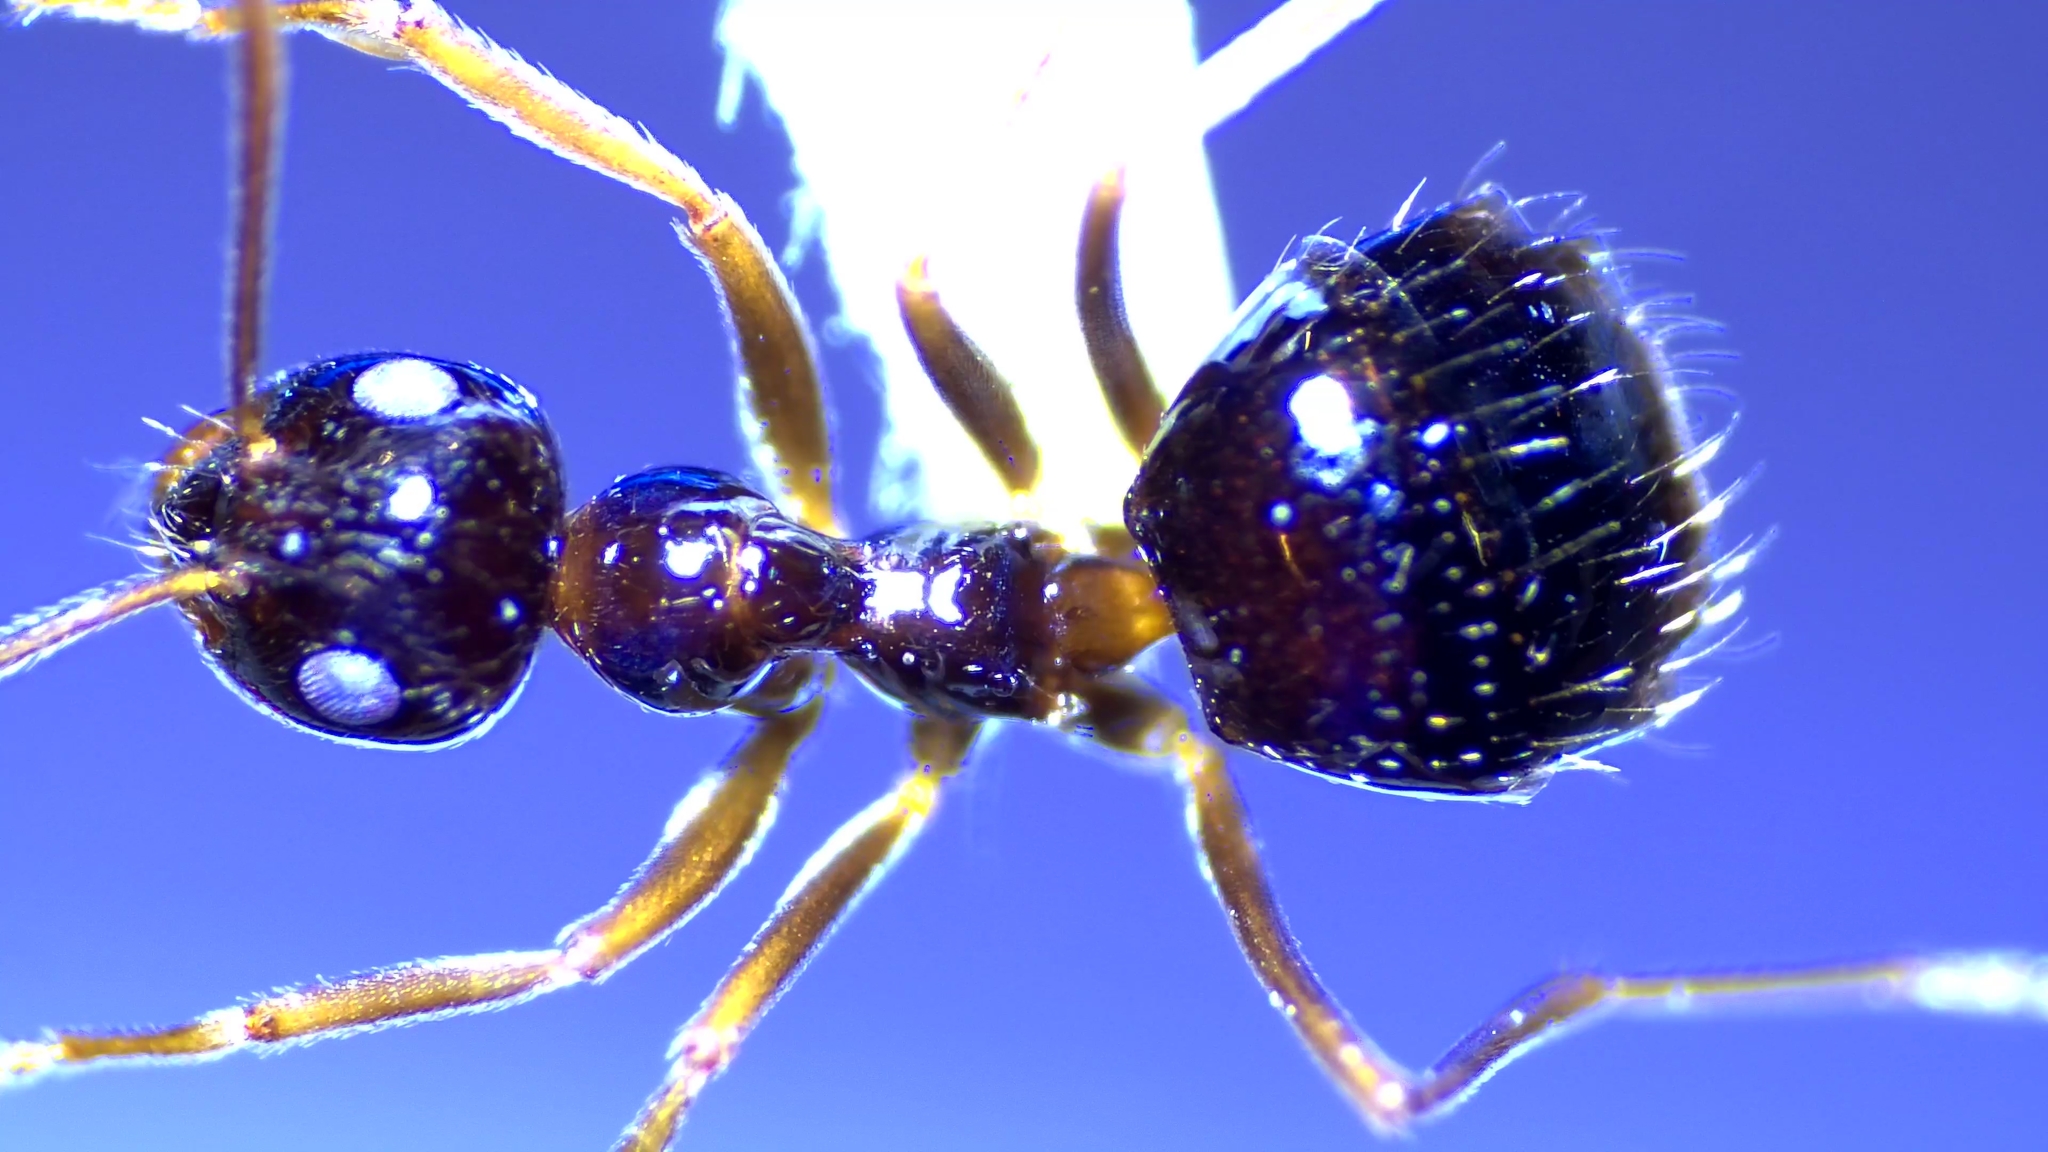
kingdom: Animalia
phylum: Arthropoda
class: Insecta
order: Hymenoptera
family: Formicidae
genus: Prenolepis
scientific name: Prenolepis imparis
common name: Small honey ant
